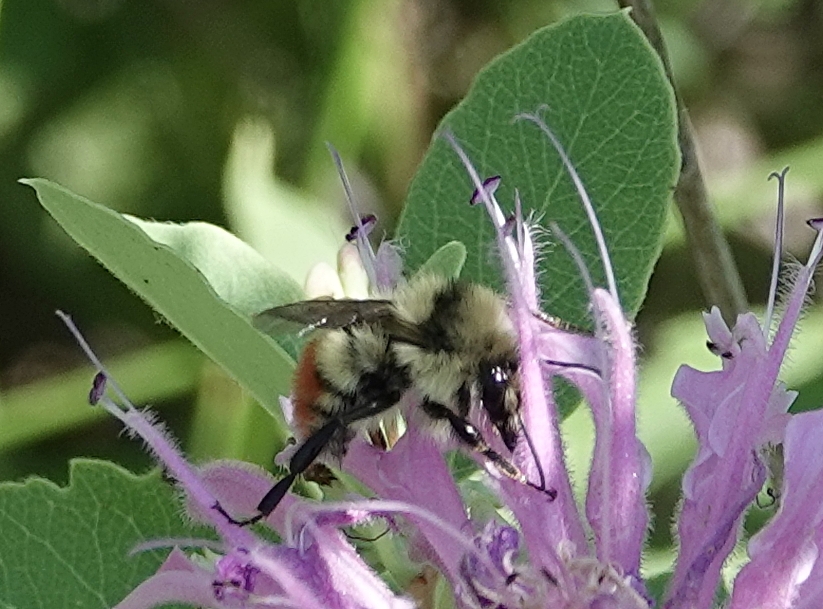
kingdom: Animalia
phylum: Arthropoda
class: Insecta
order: Hymenoptera
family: Apidae
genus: Bombus
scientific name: Bombus centralis
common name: Central bumble bee
